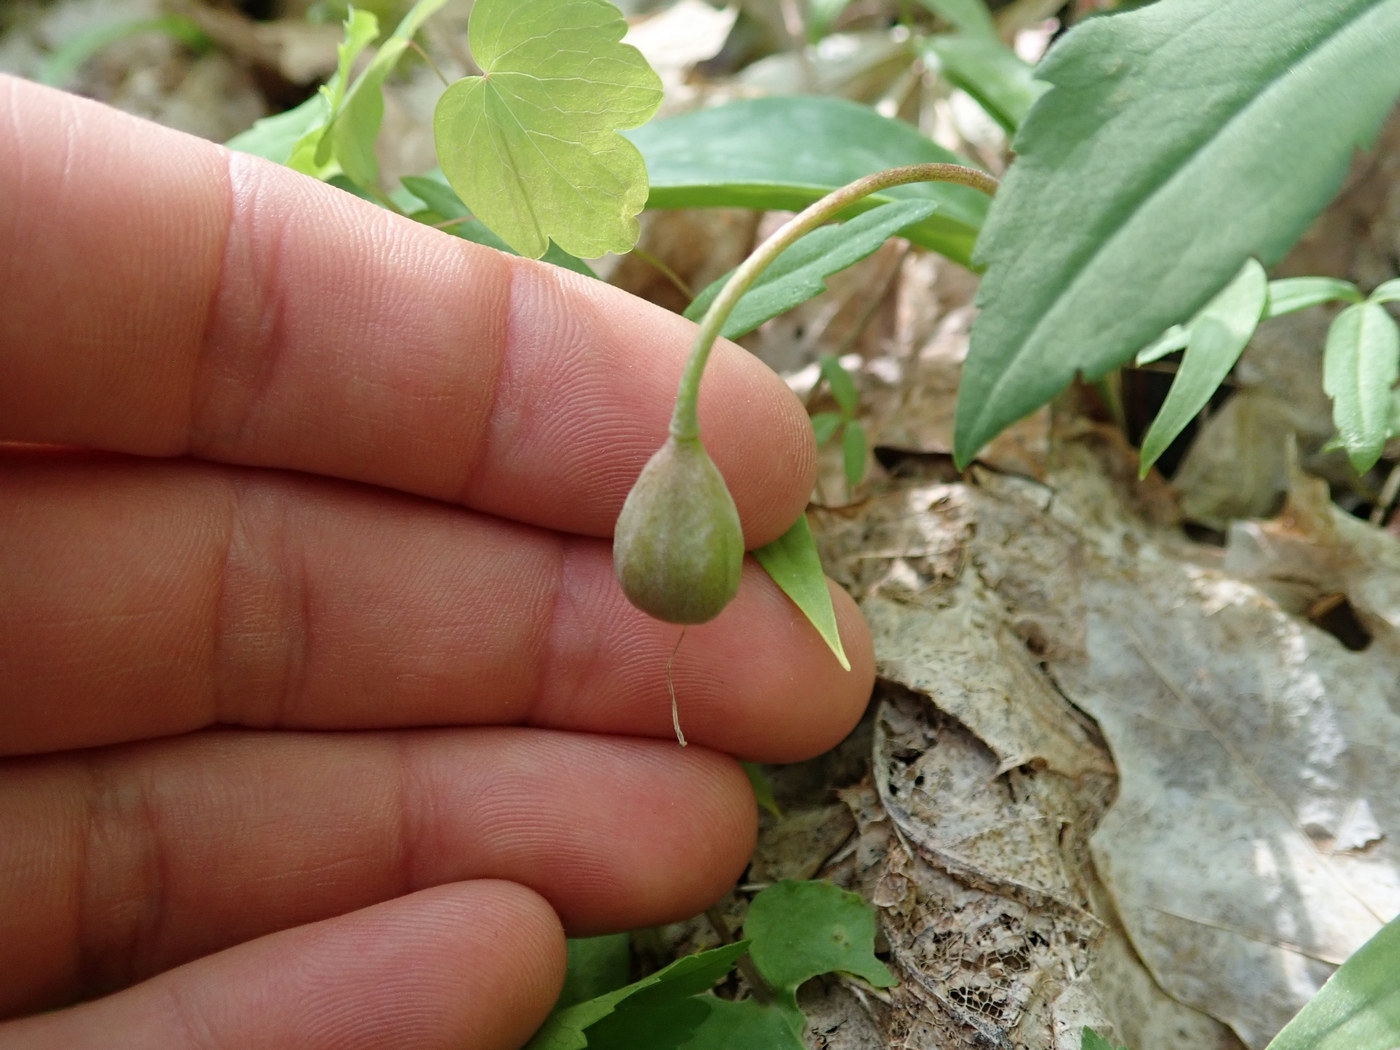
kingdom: Plantae
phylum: Tracheophyta
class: Liliopsida
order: Liliales
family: Liliaceae
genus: Erythronium
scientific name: Erythronium umbilicatum
